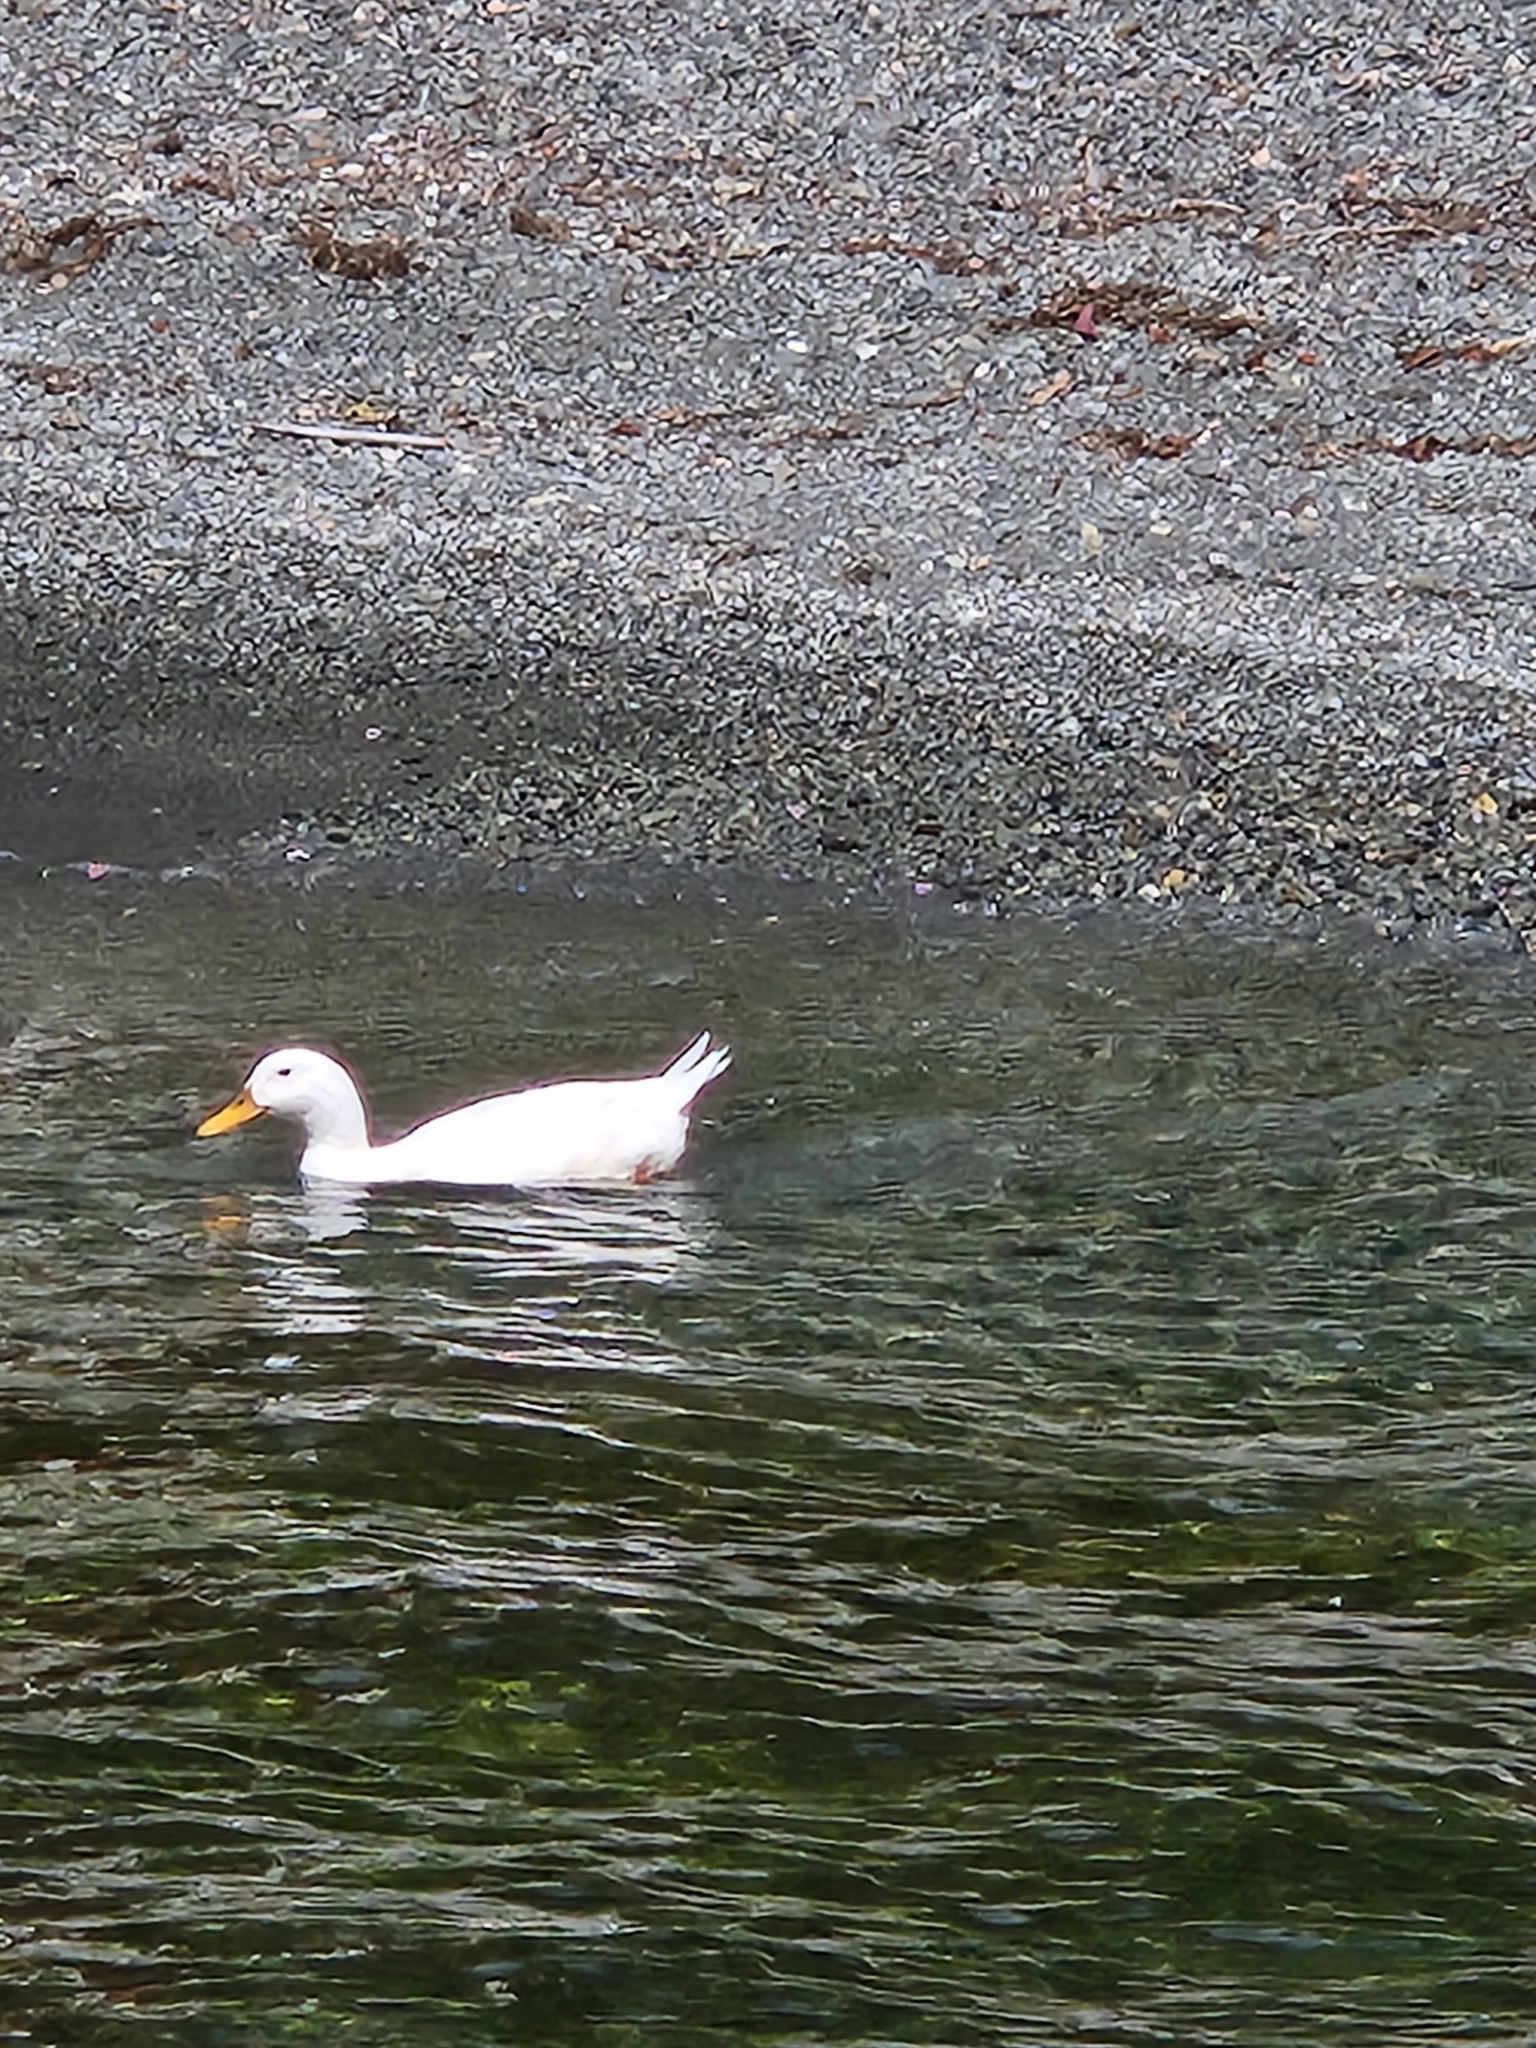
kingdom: Animalia
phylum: Chordata
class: Aves
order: Anseriformes
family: Anatidae
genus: Anas
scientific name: Anas platyrhynchos
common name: Mallard
